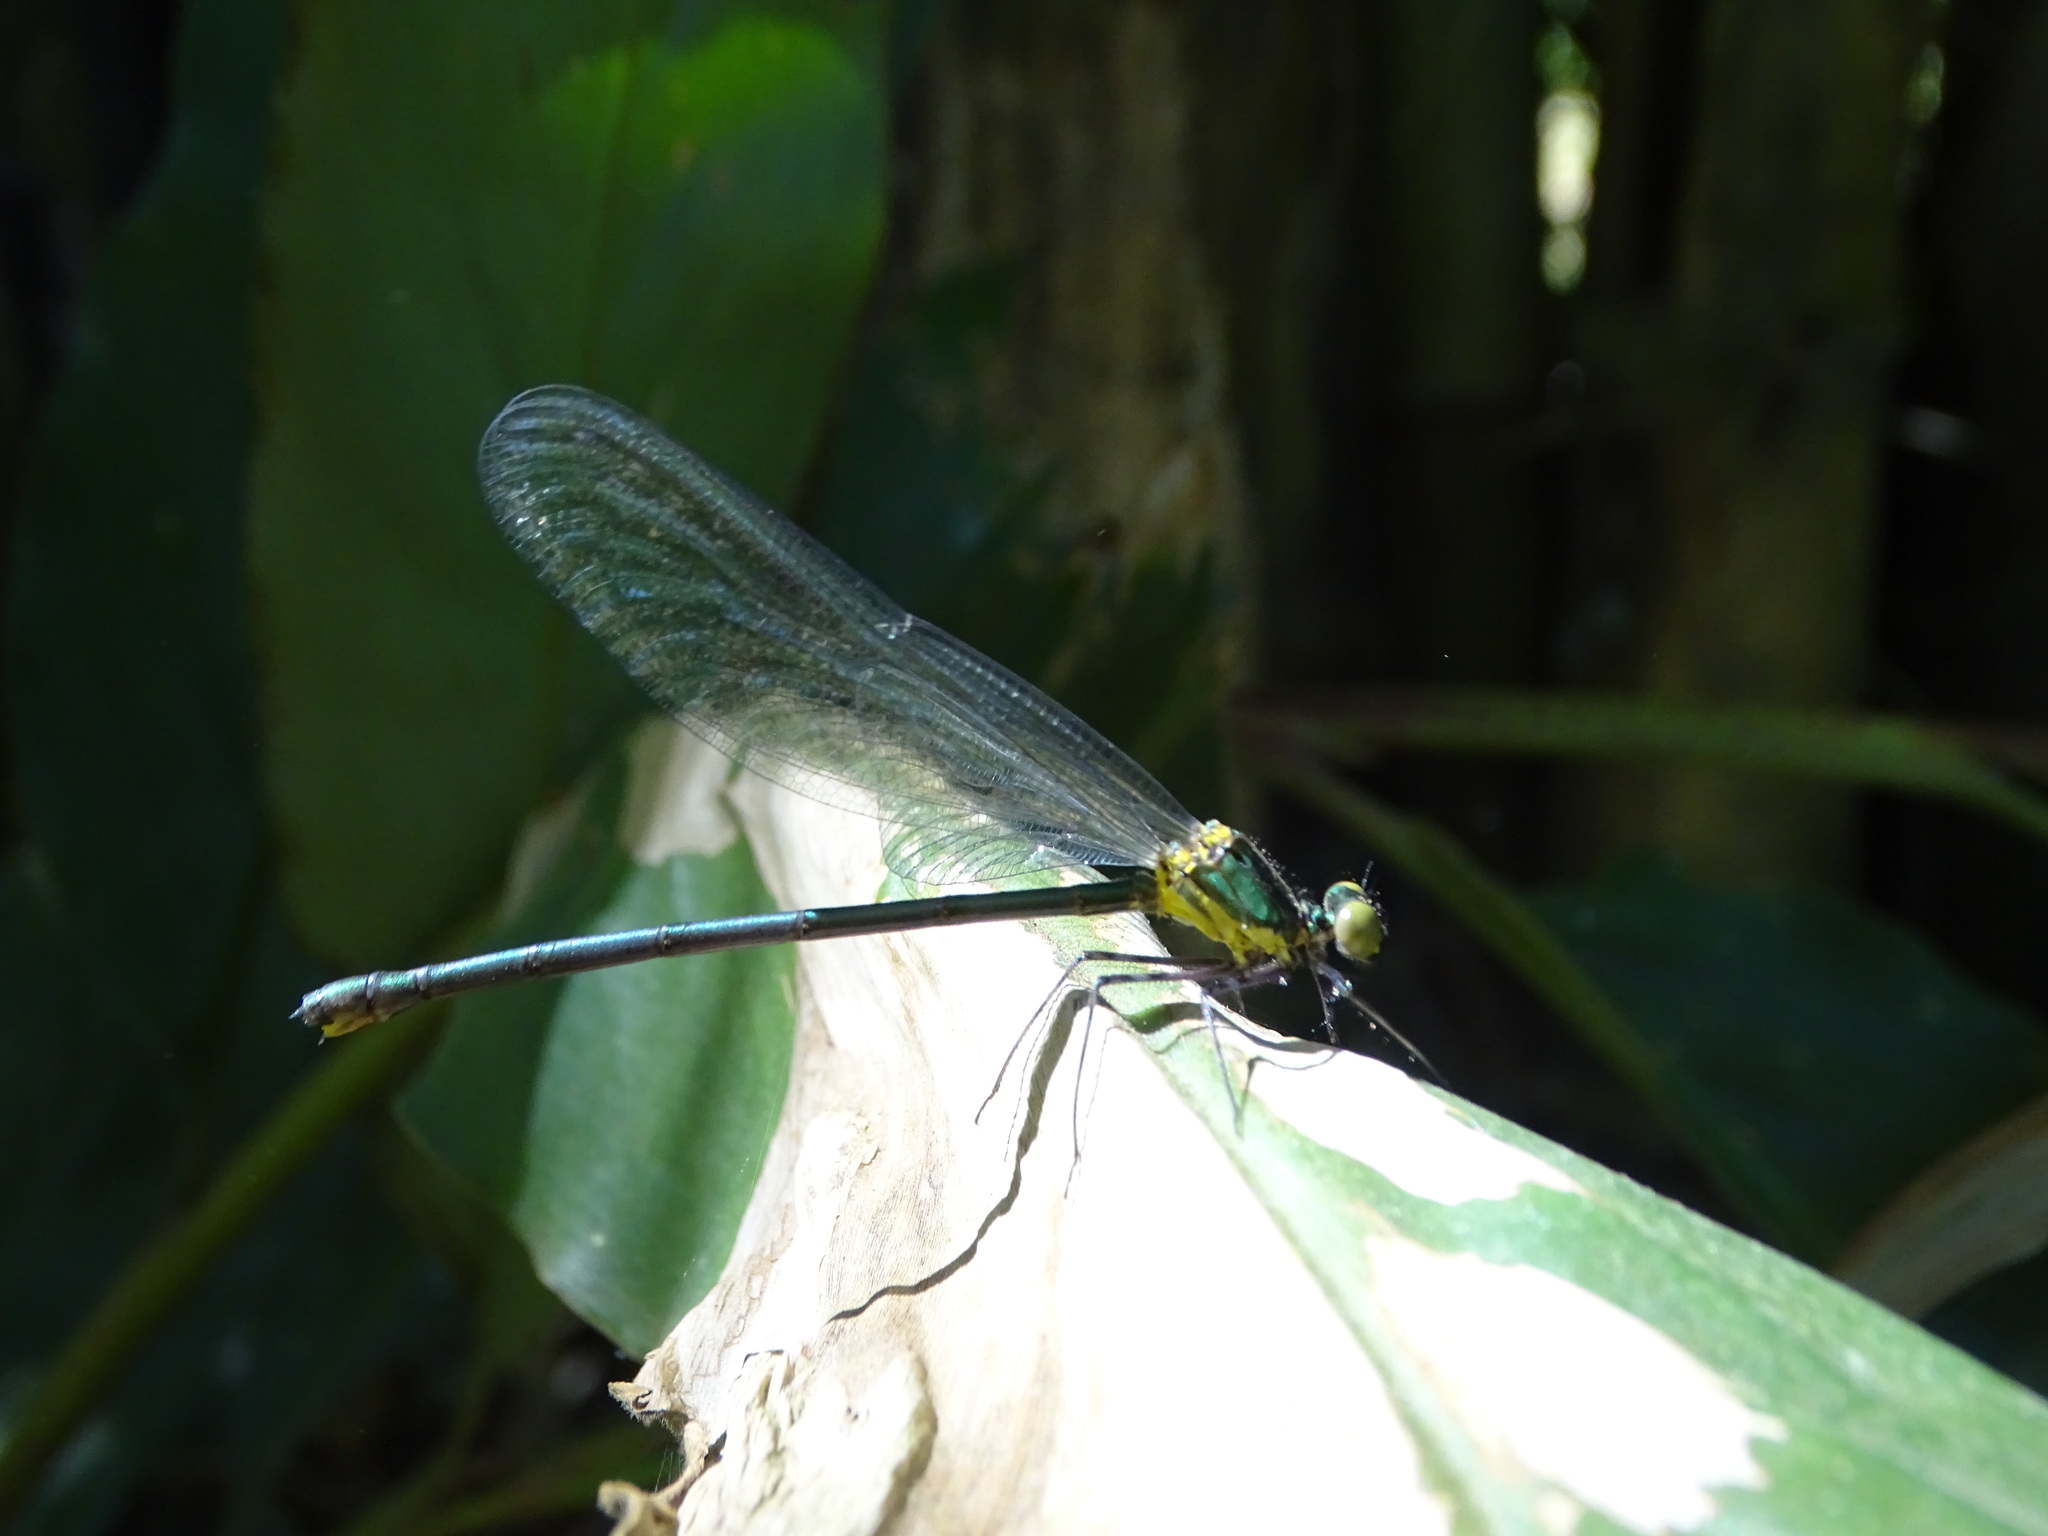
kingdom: Animalia
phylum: Arthropoda
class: Insecta
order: Odonata
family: Calopterygidae
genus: Vestalaria
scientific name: Vestalaria smaragdina
